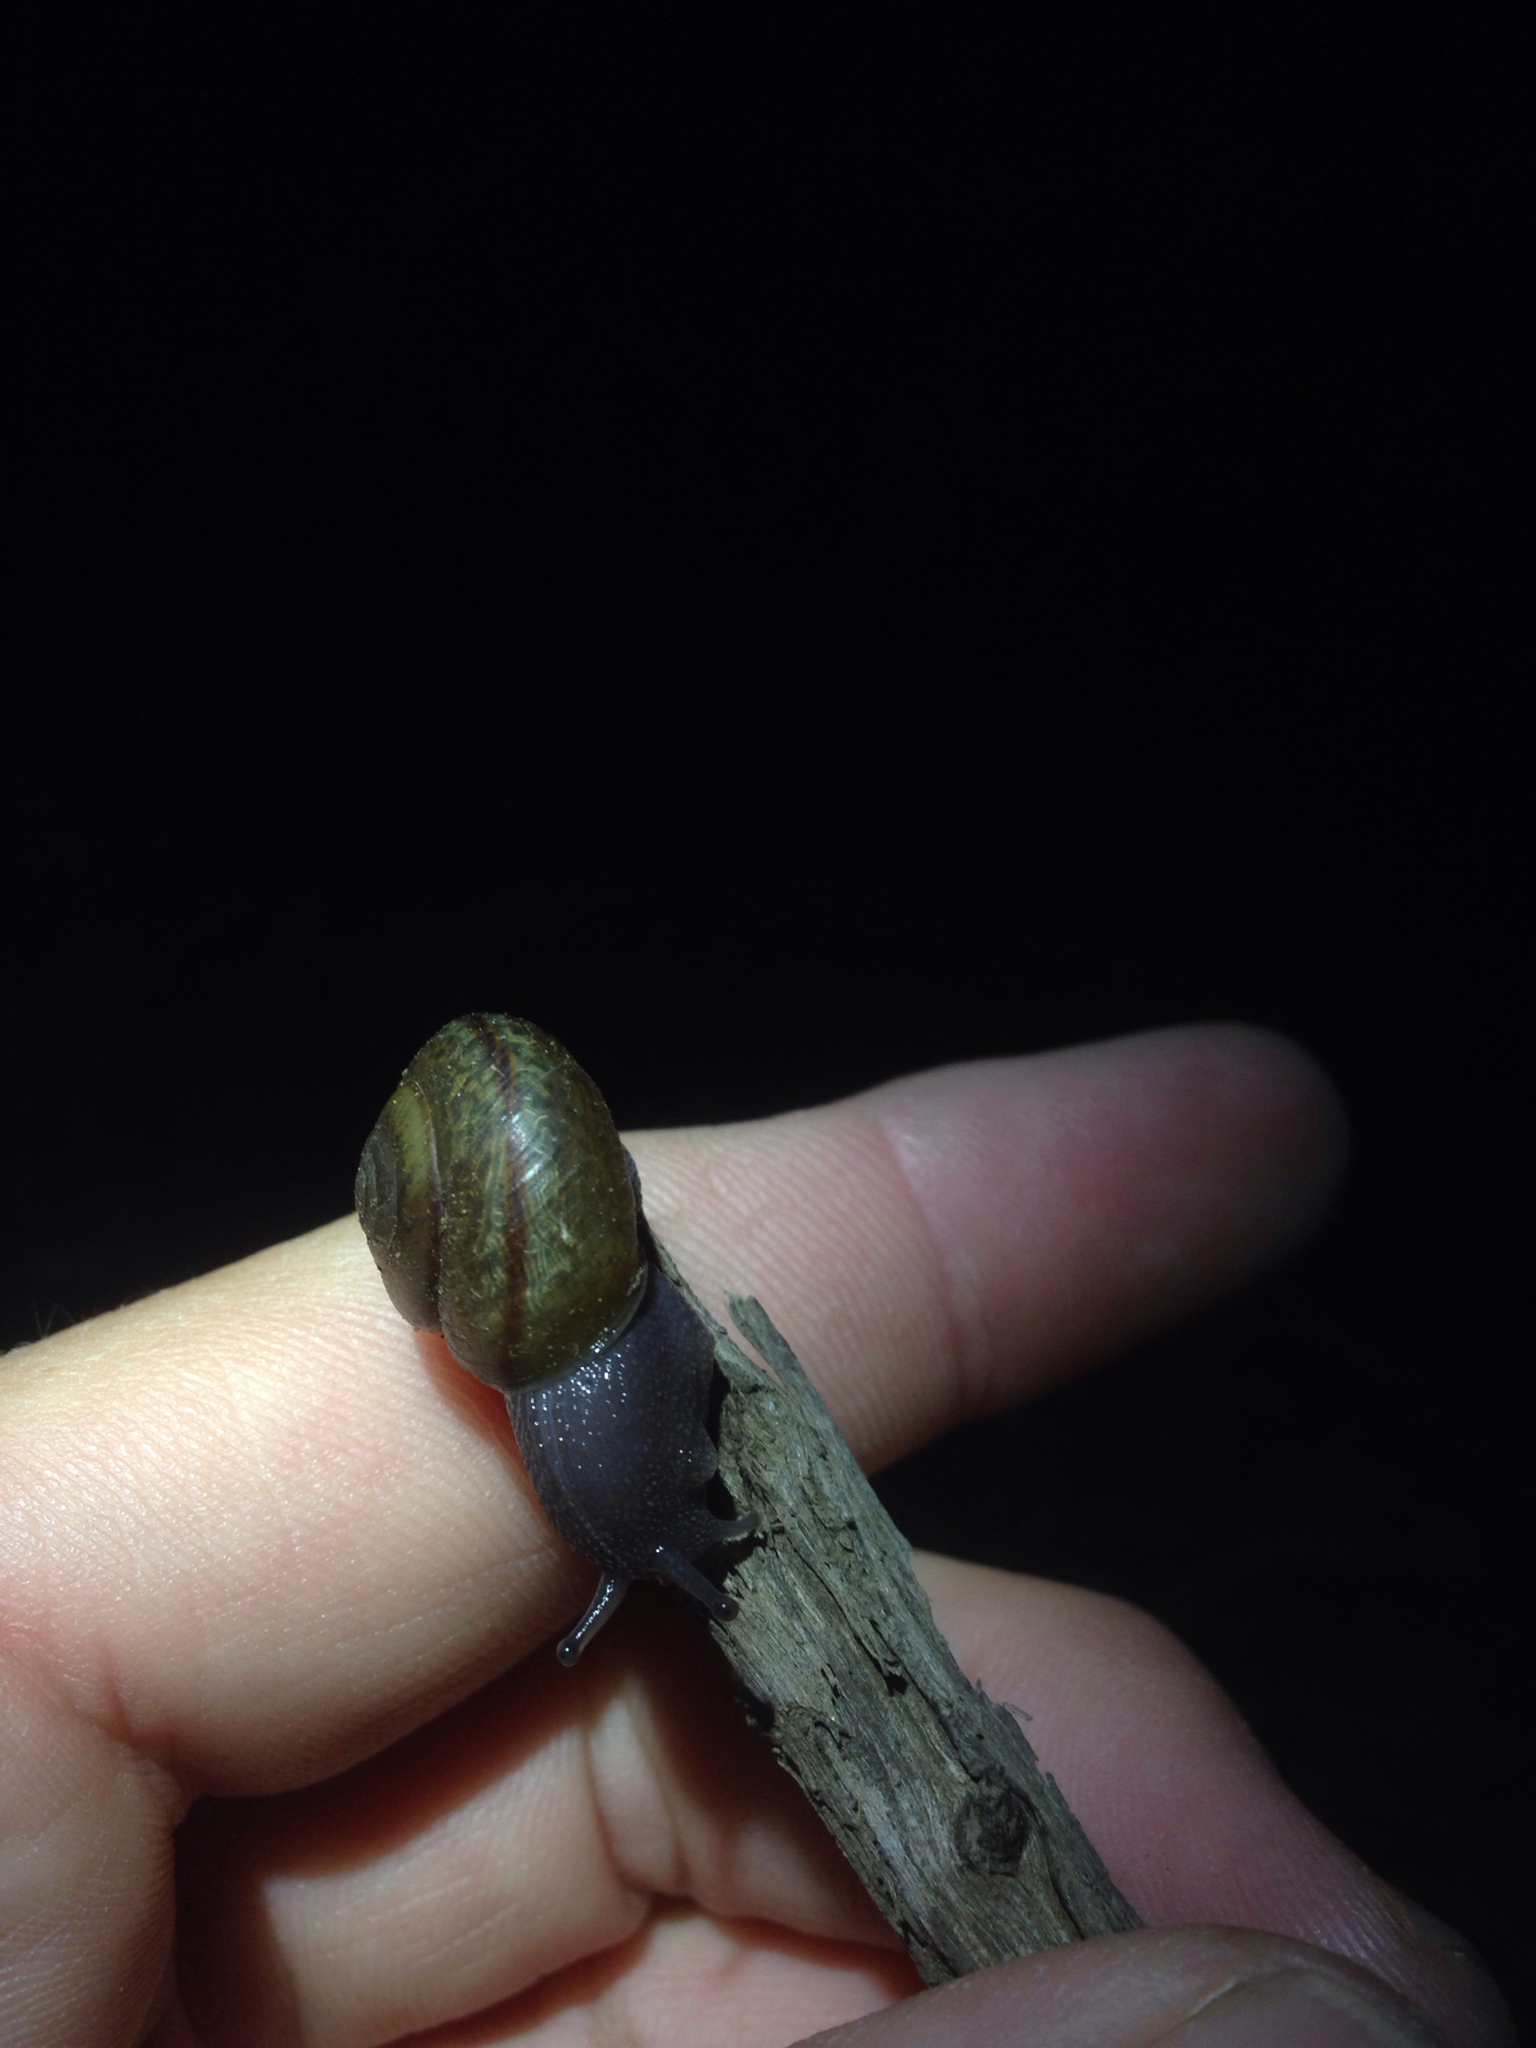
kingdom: Animalia
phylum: Mollusca
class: Gastropoda
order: Stylommatophora
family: Xanthonychidae
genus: Helminthoglypta
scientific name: Helminthoglypta traskii
